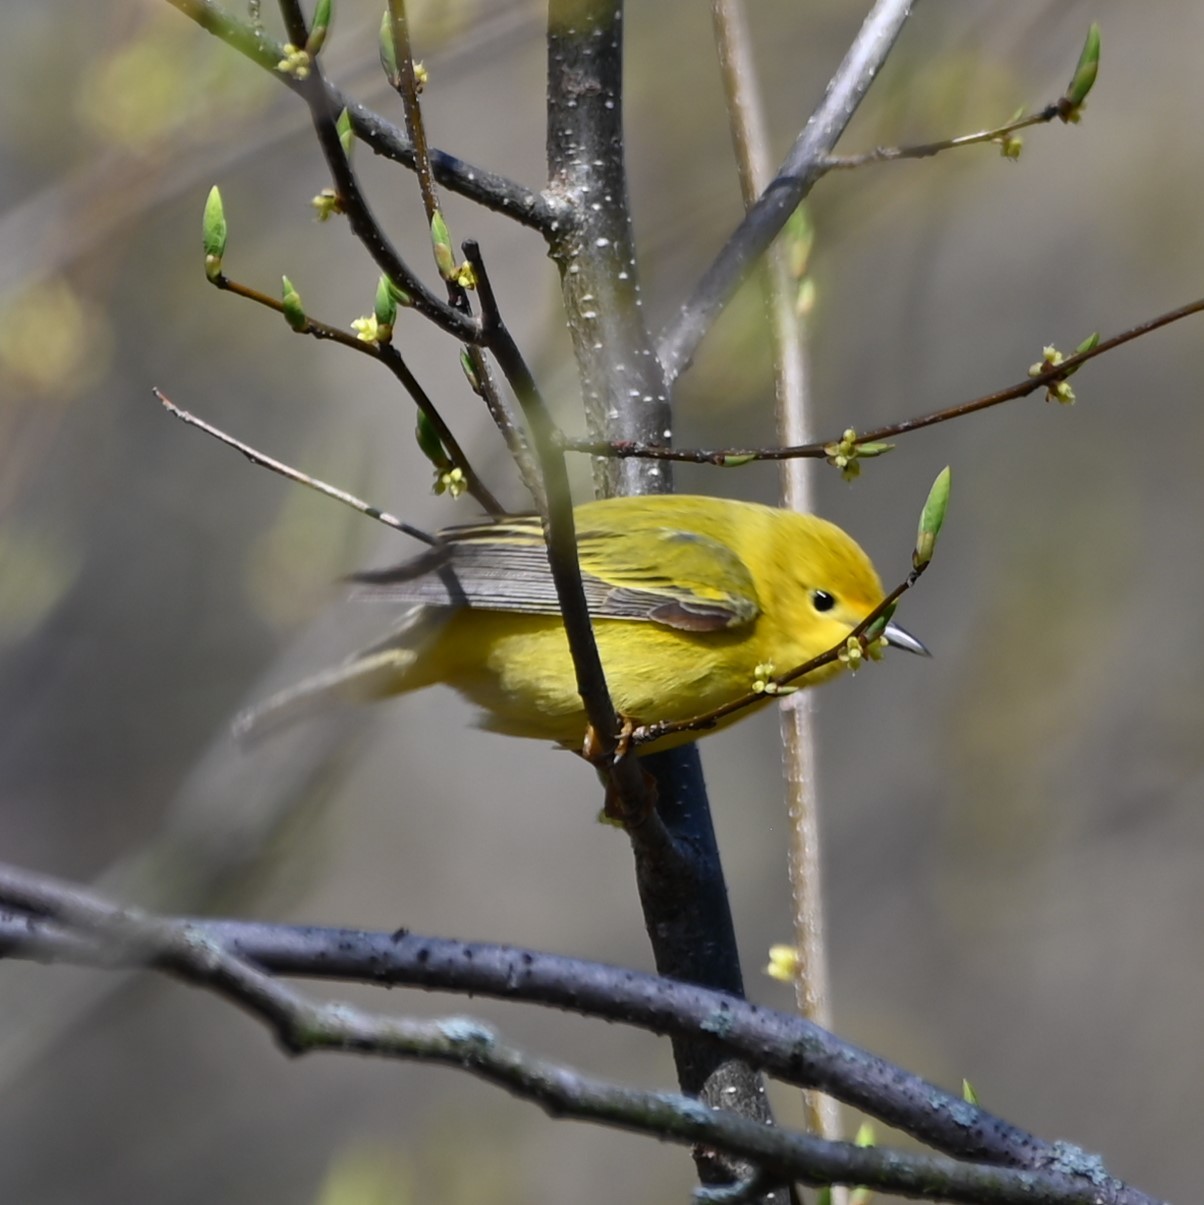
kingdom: Animalia
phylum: Chordata
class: Aves
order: Passeriformes
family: Parulidae
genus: Setophaga
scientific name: Setophaga petechia
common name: Yellow warbler
